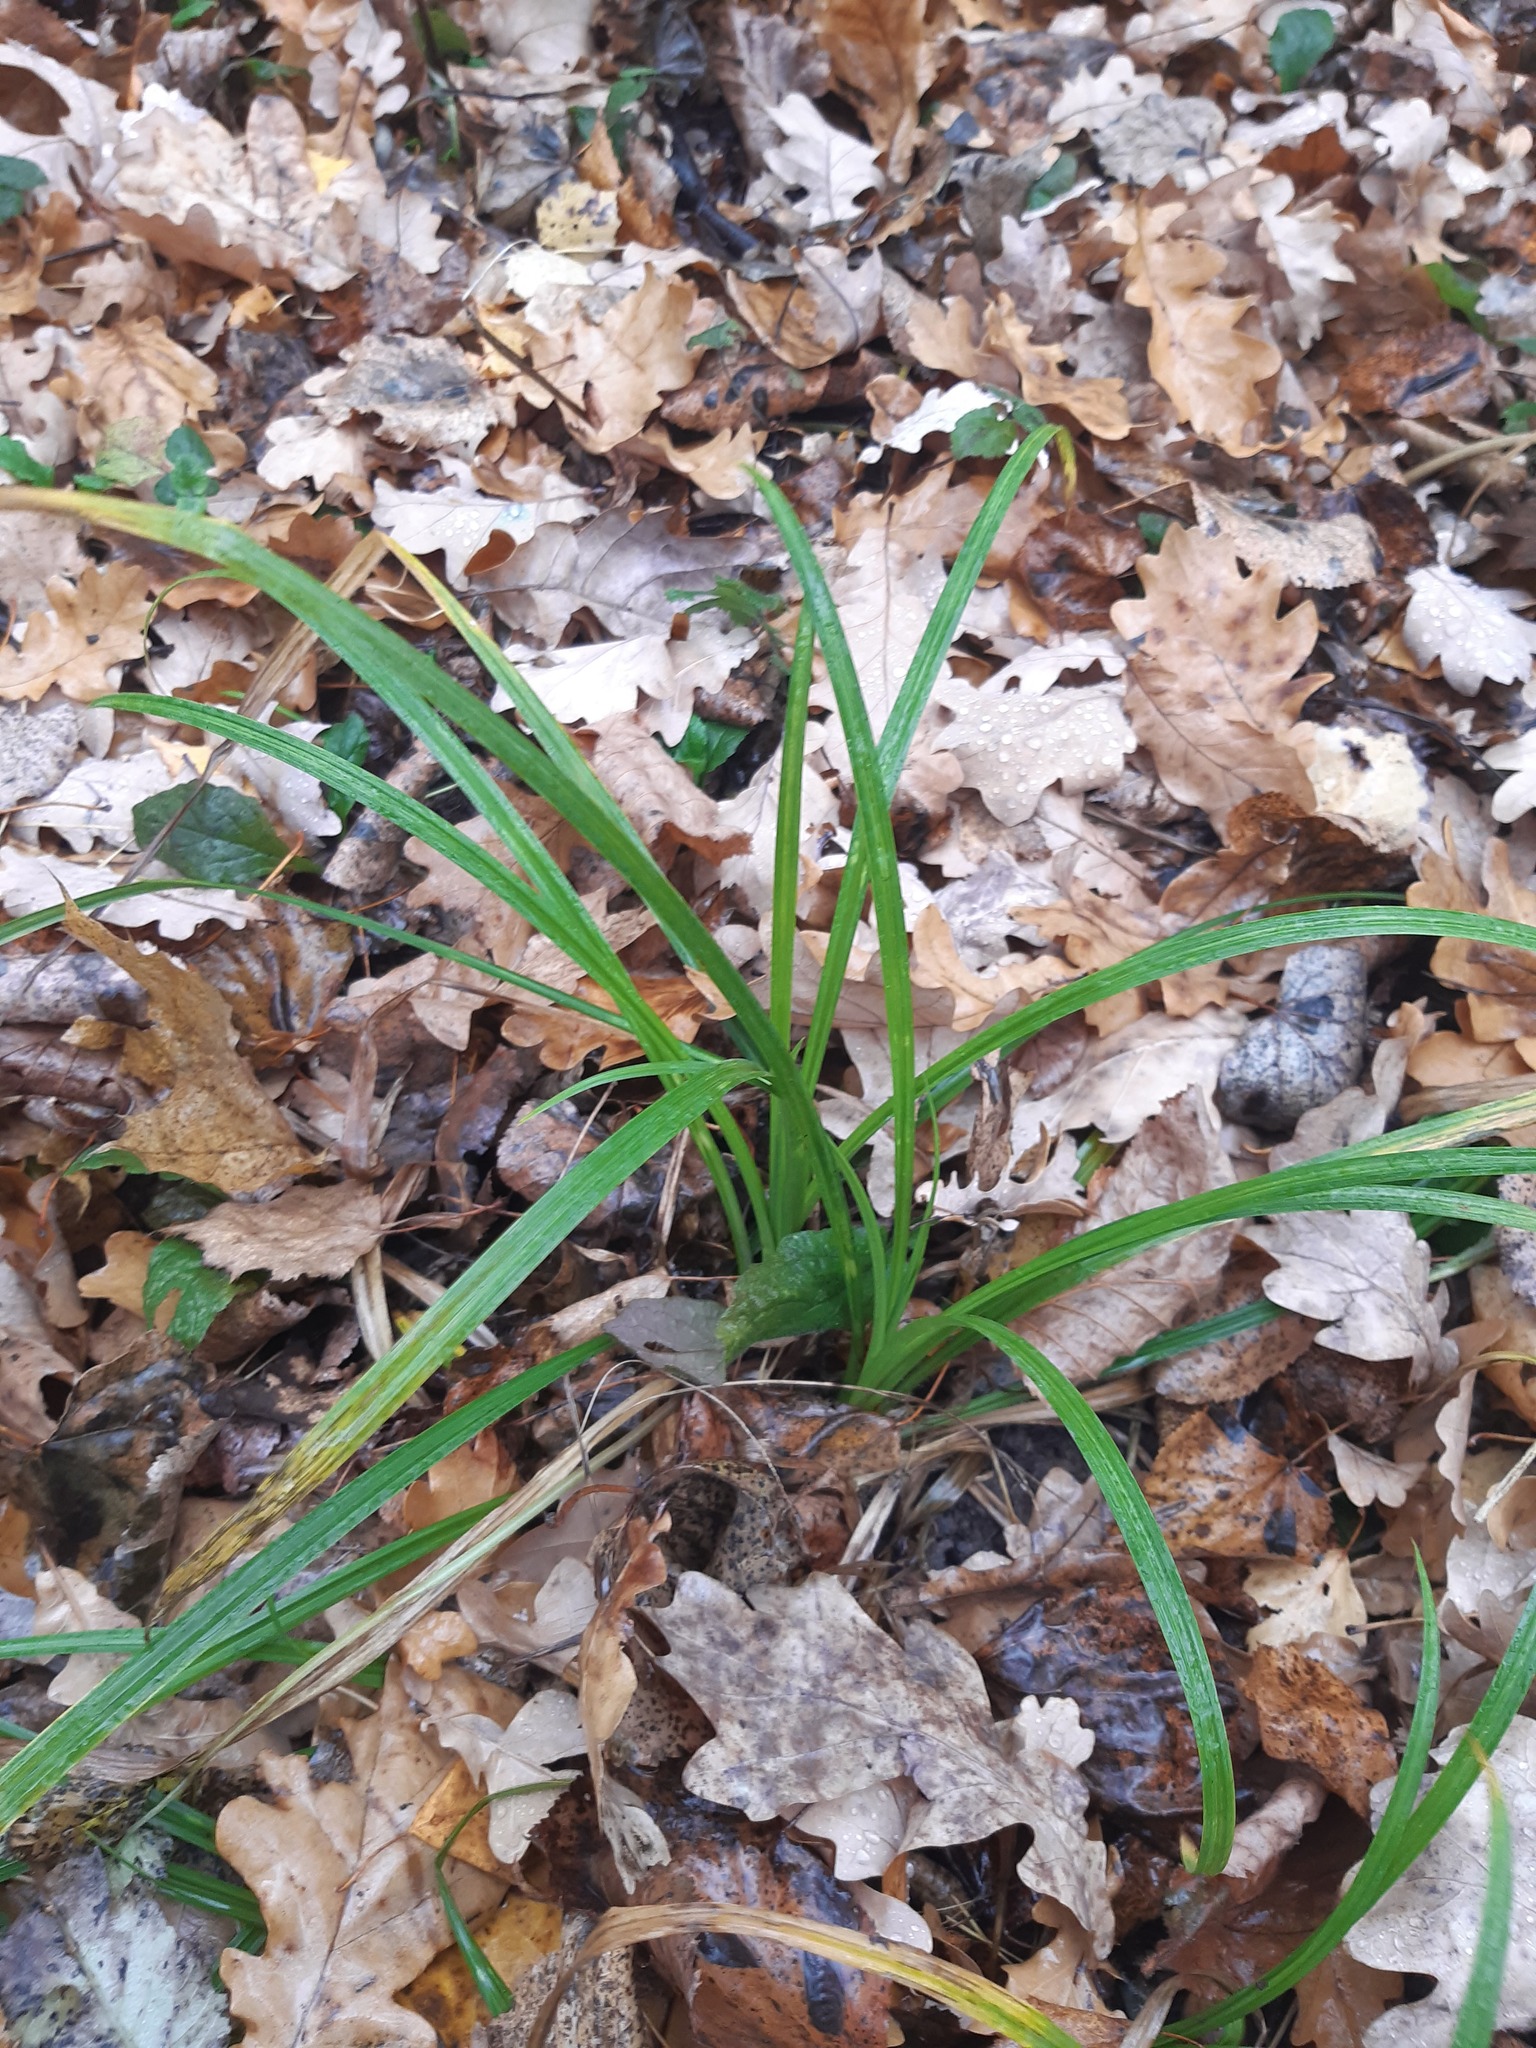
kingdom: Plantae
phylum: Tracheophyta
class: Liliopsida
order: Poales
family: Cyperaceae
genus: Carex
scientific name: Carex sylvatica
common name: Wood-sedge
